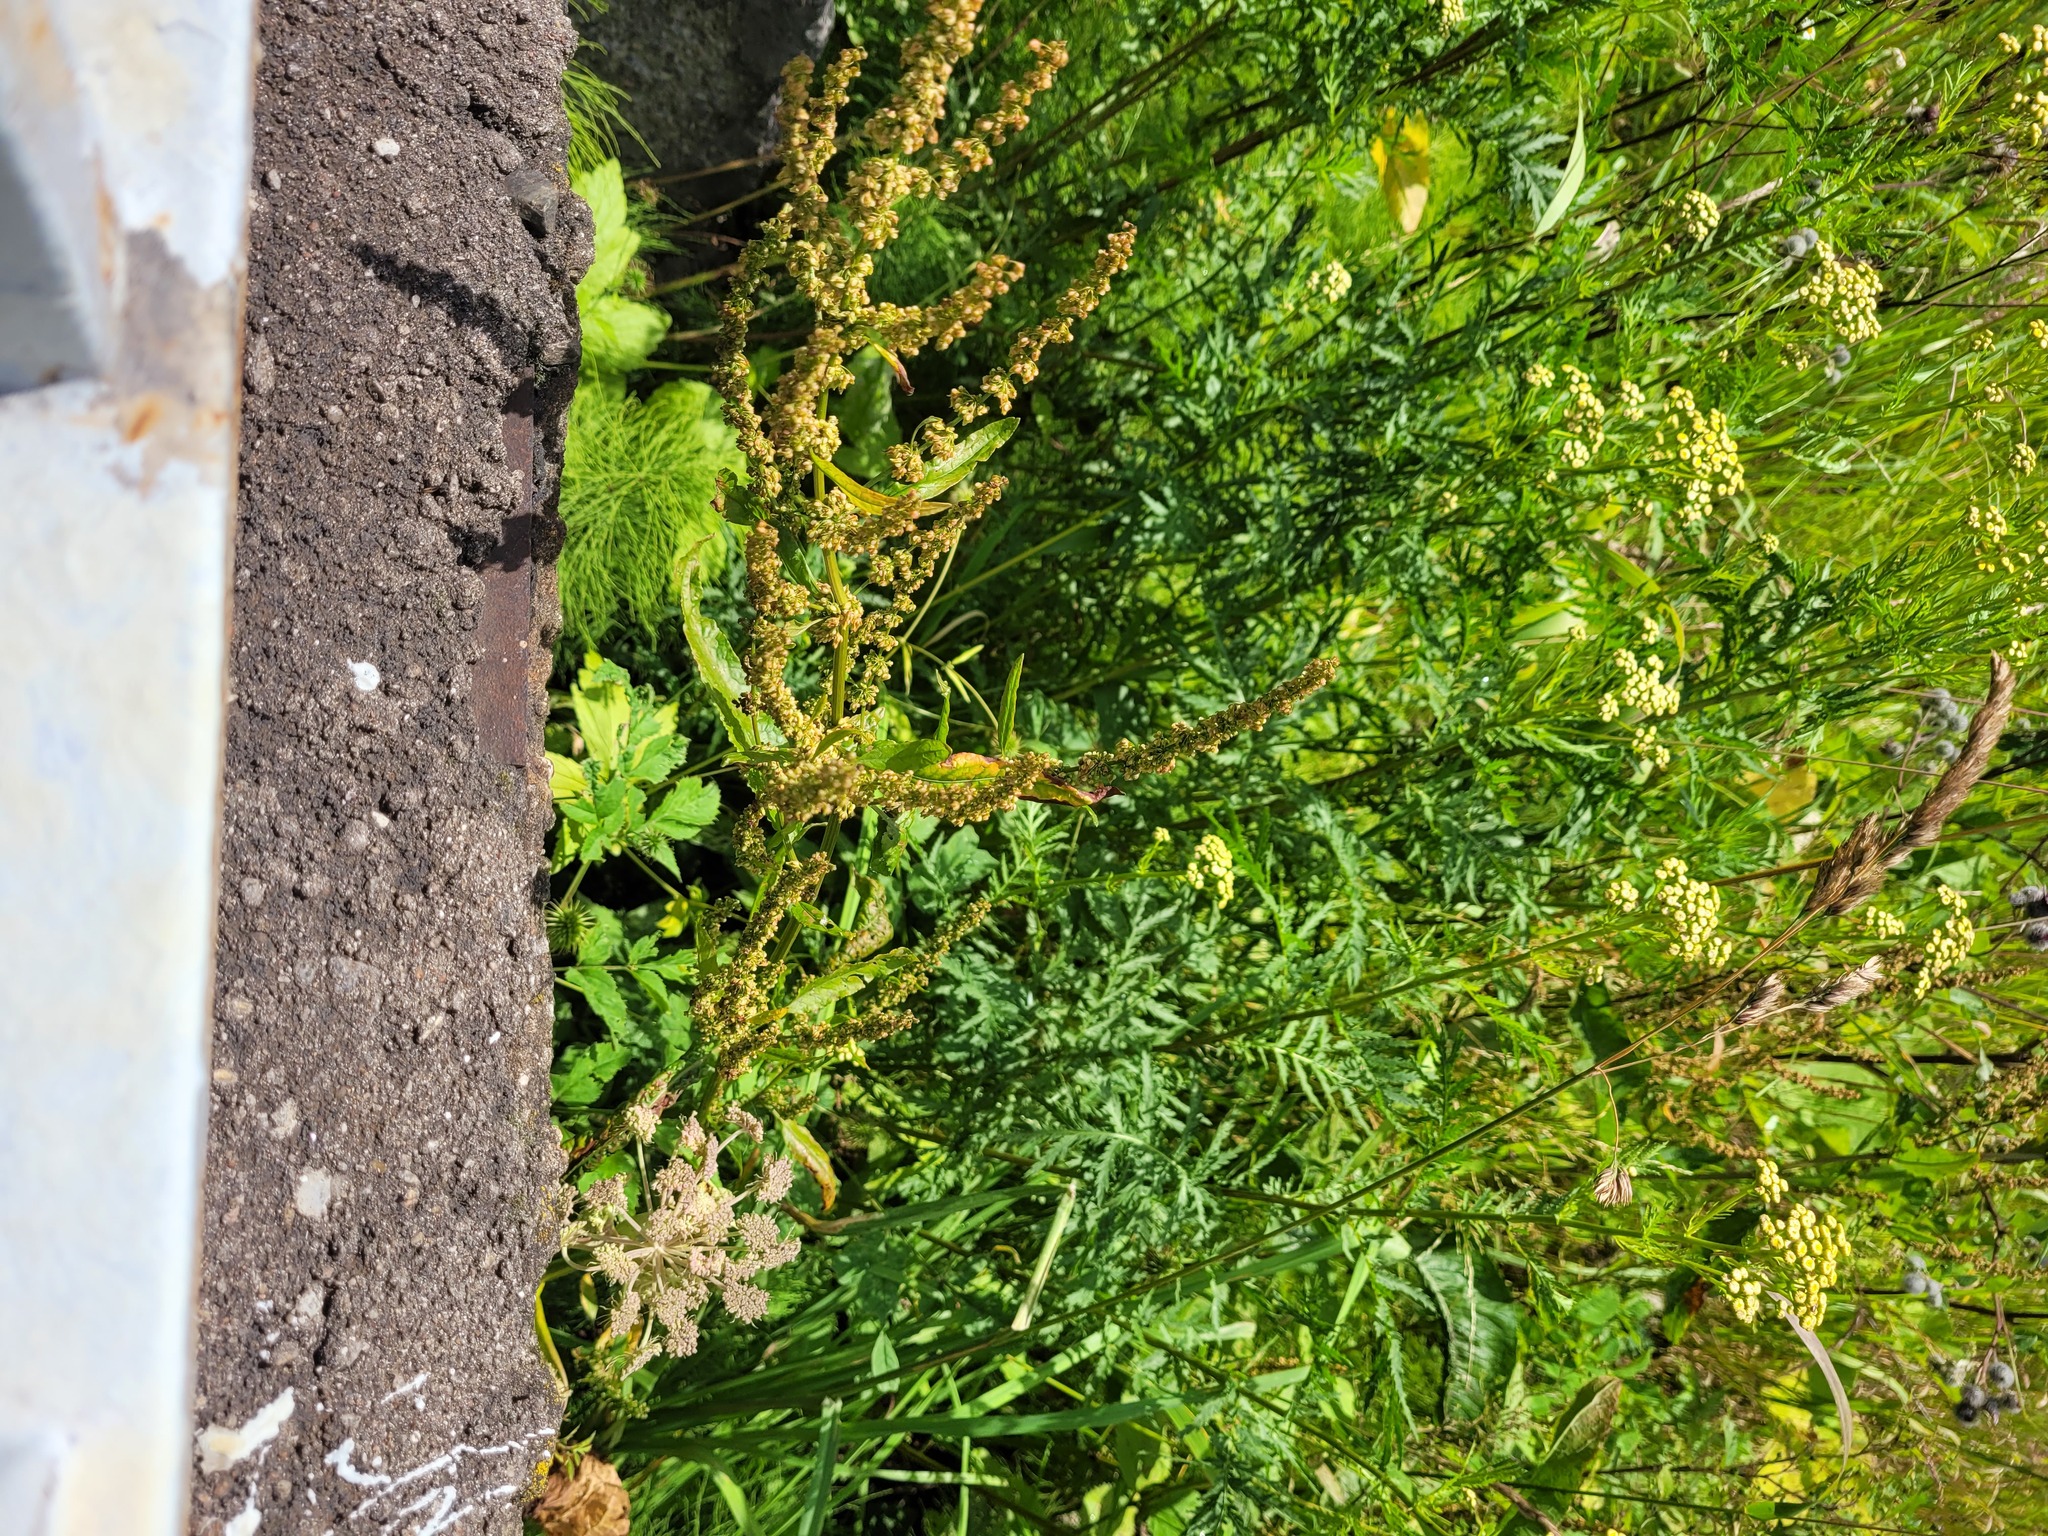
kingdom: Plantae
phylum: Tracheophyta
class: Magnoliopsida
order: Caryophyllales
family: Polygonaceae
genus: Rumex
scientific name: Rumex obtusifolius
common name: Bitter dock
